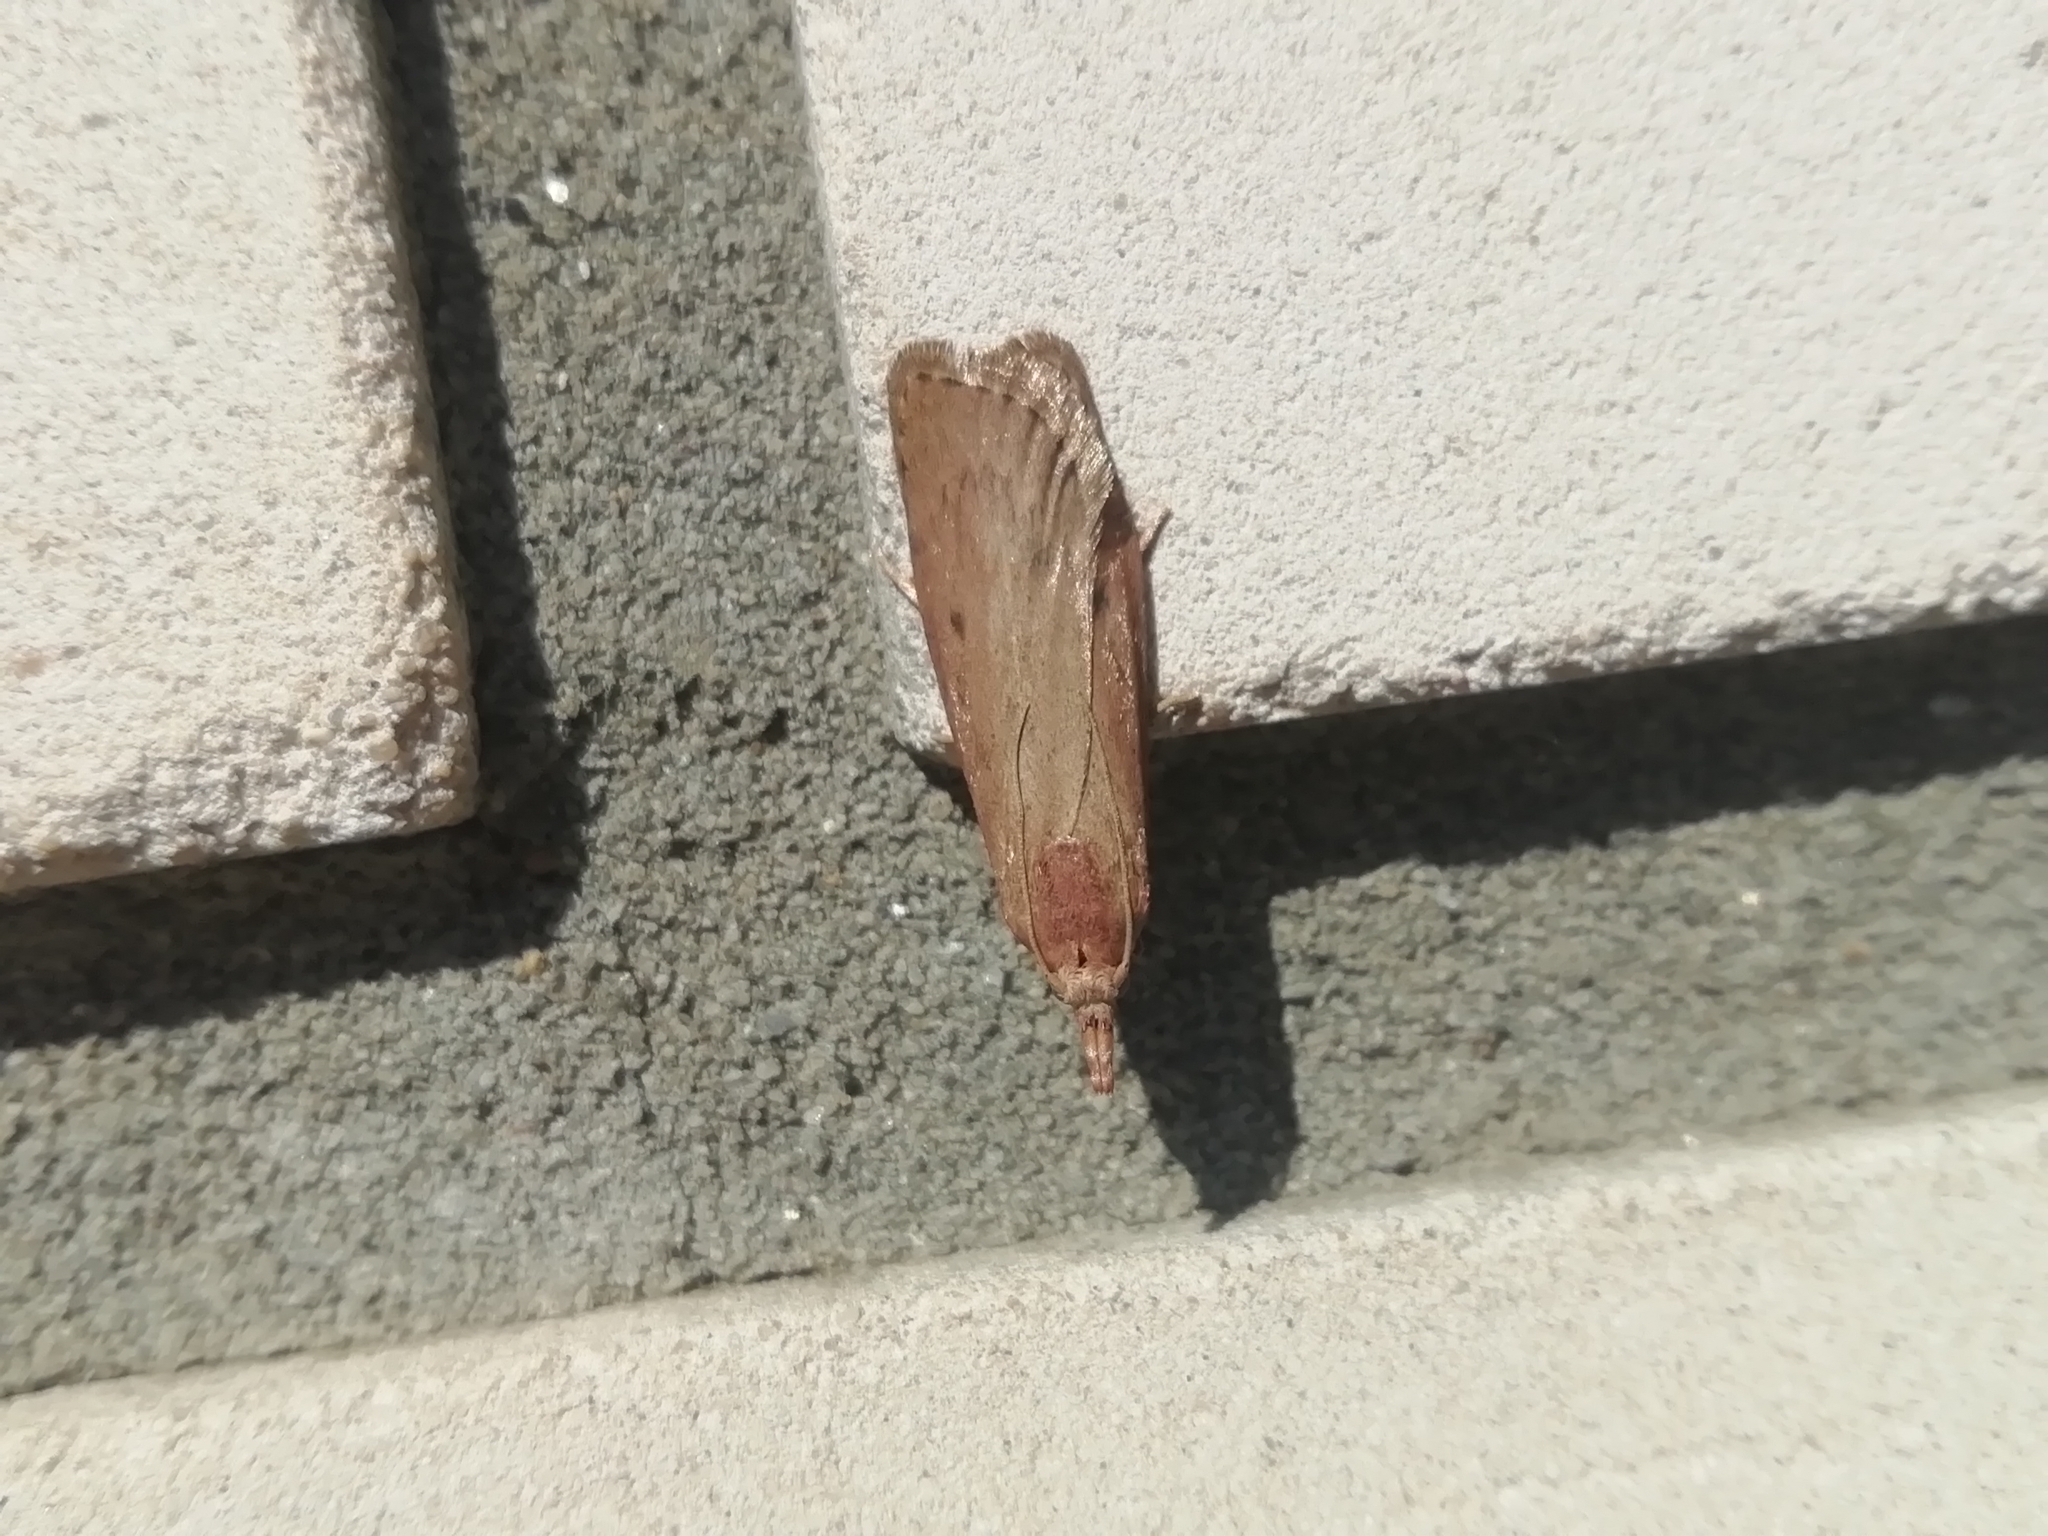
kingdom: Animalia
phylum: Arthropoda
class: Insecta
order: Lepidoptera
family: Pyralidae
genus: Aphomia
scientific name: Aphomia sociella
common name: Bee moth
